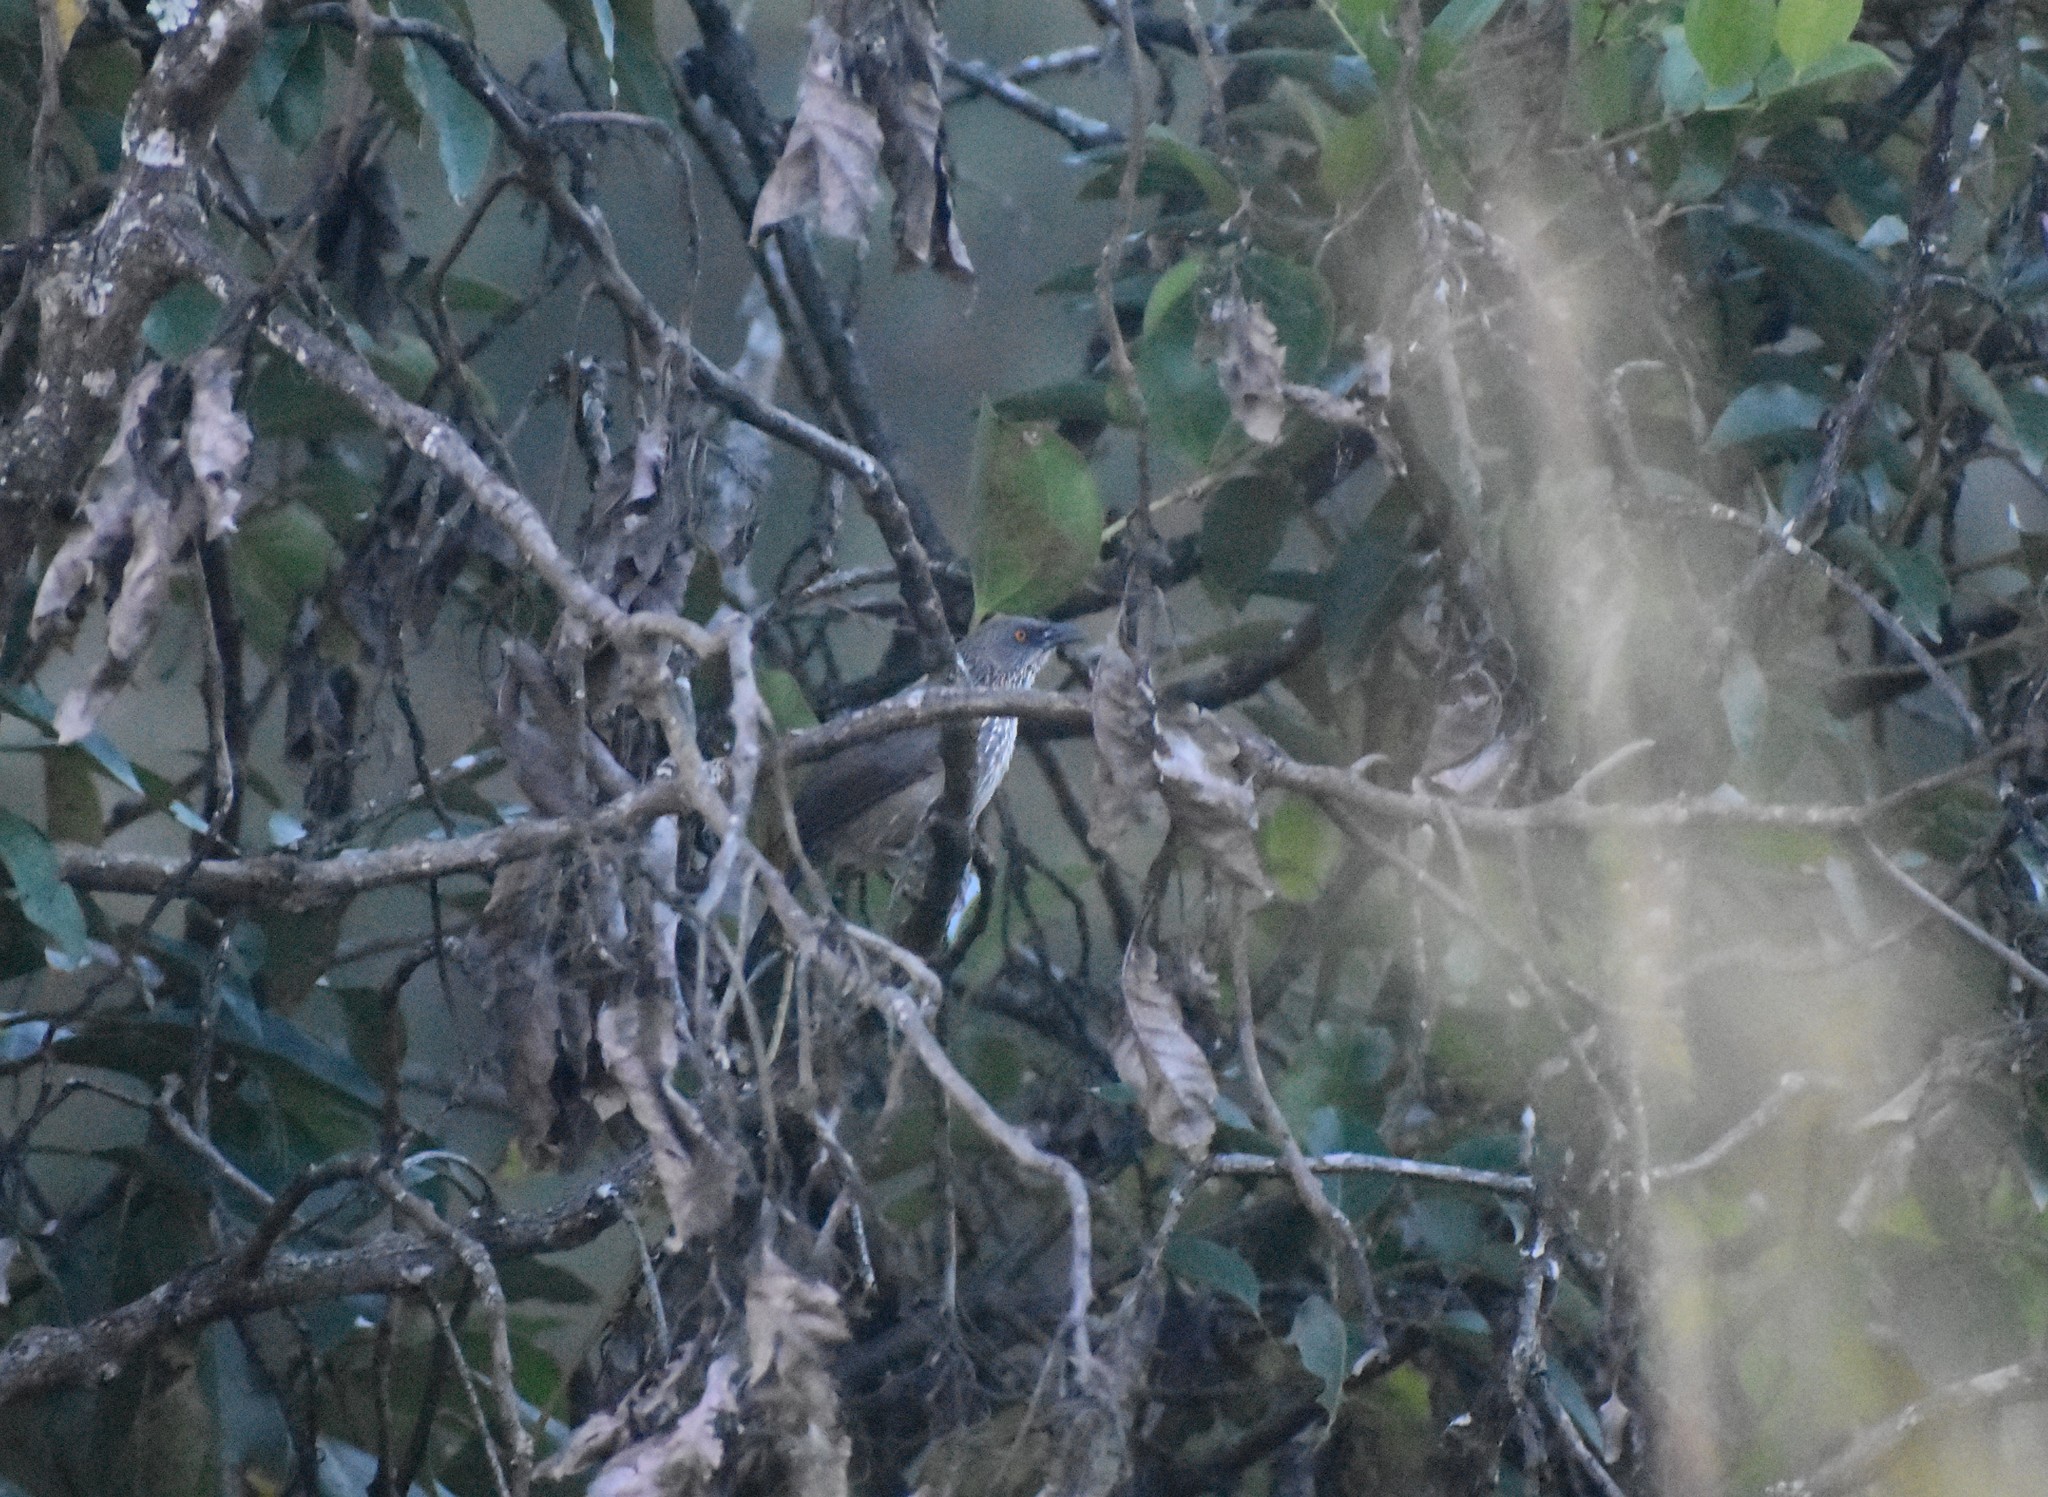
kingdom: Animalia
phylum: Chordata
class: Aves
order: Passeriformes
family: Leiothrichidae
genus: Turdoides
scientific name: Turdoides jardineii
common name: Arrow-marked babbler
